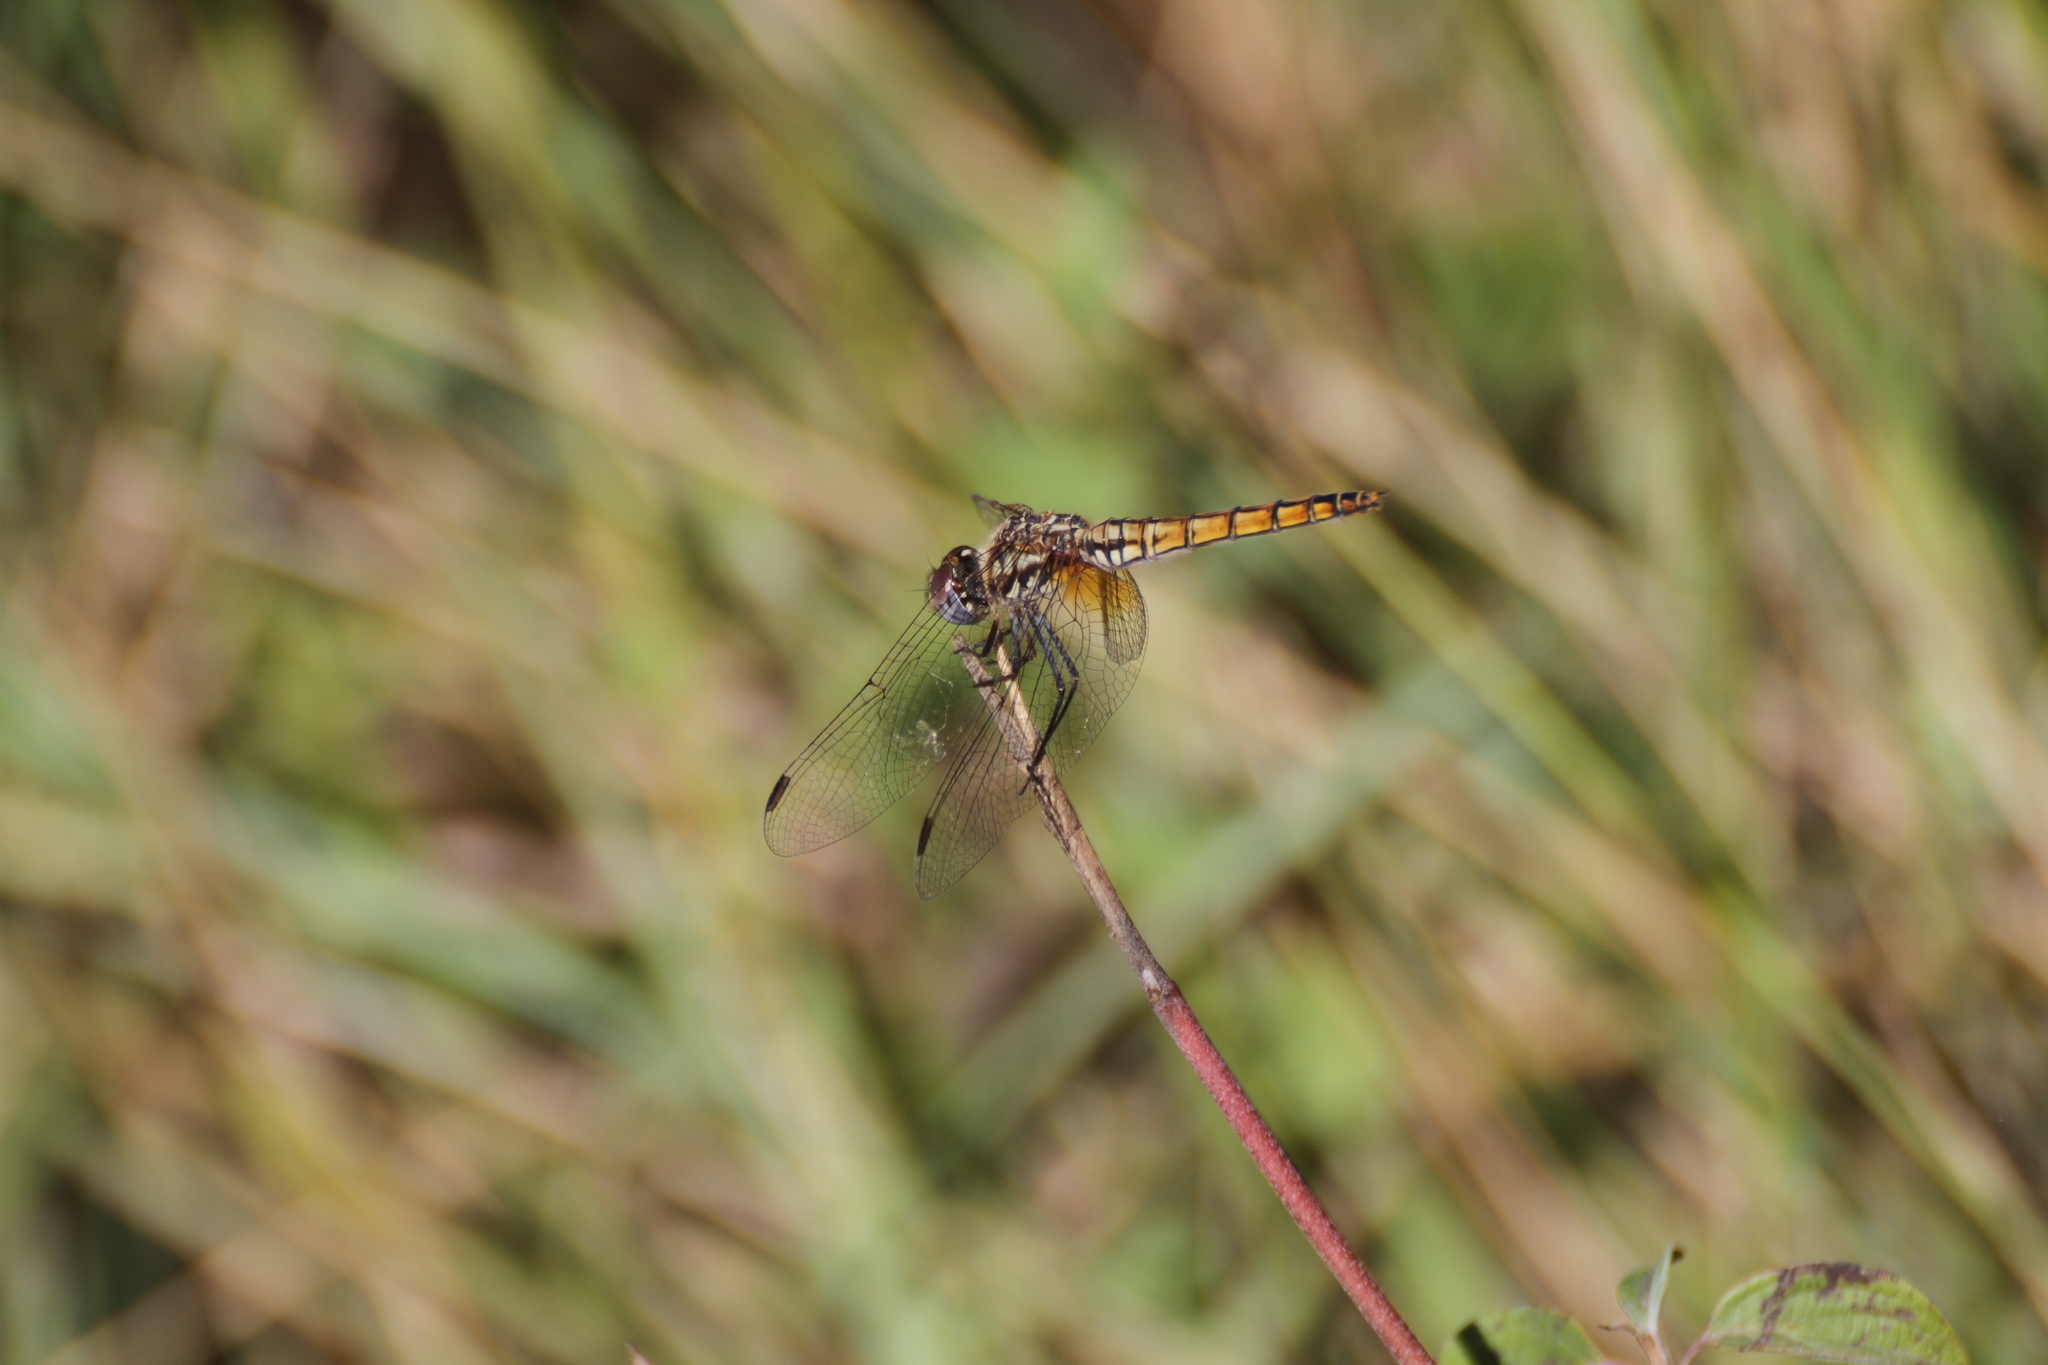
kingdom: Animalia
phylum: Arthropoda
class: Insecta
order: Odonata
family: Libellulidae
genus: Trithemis
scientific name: Trithemis annulata
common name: Violet dropwing
